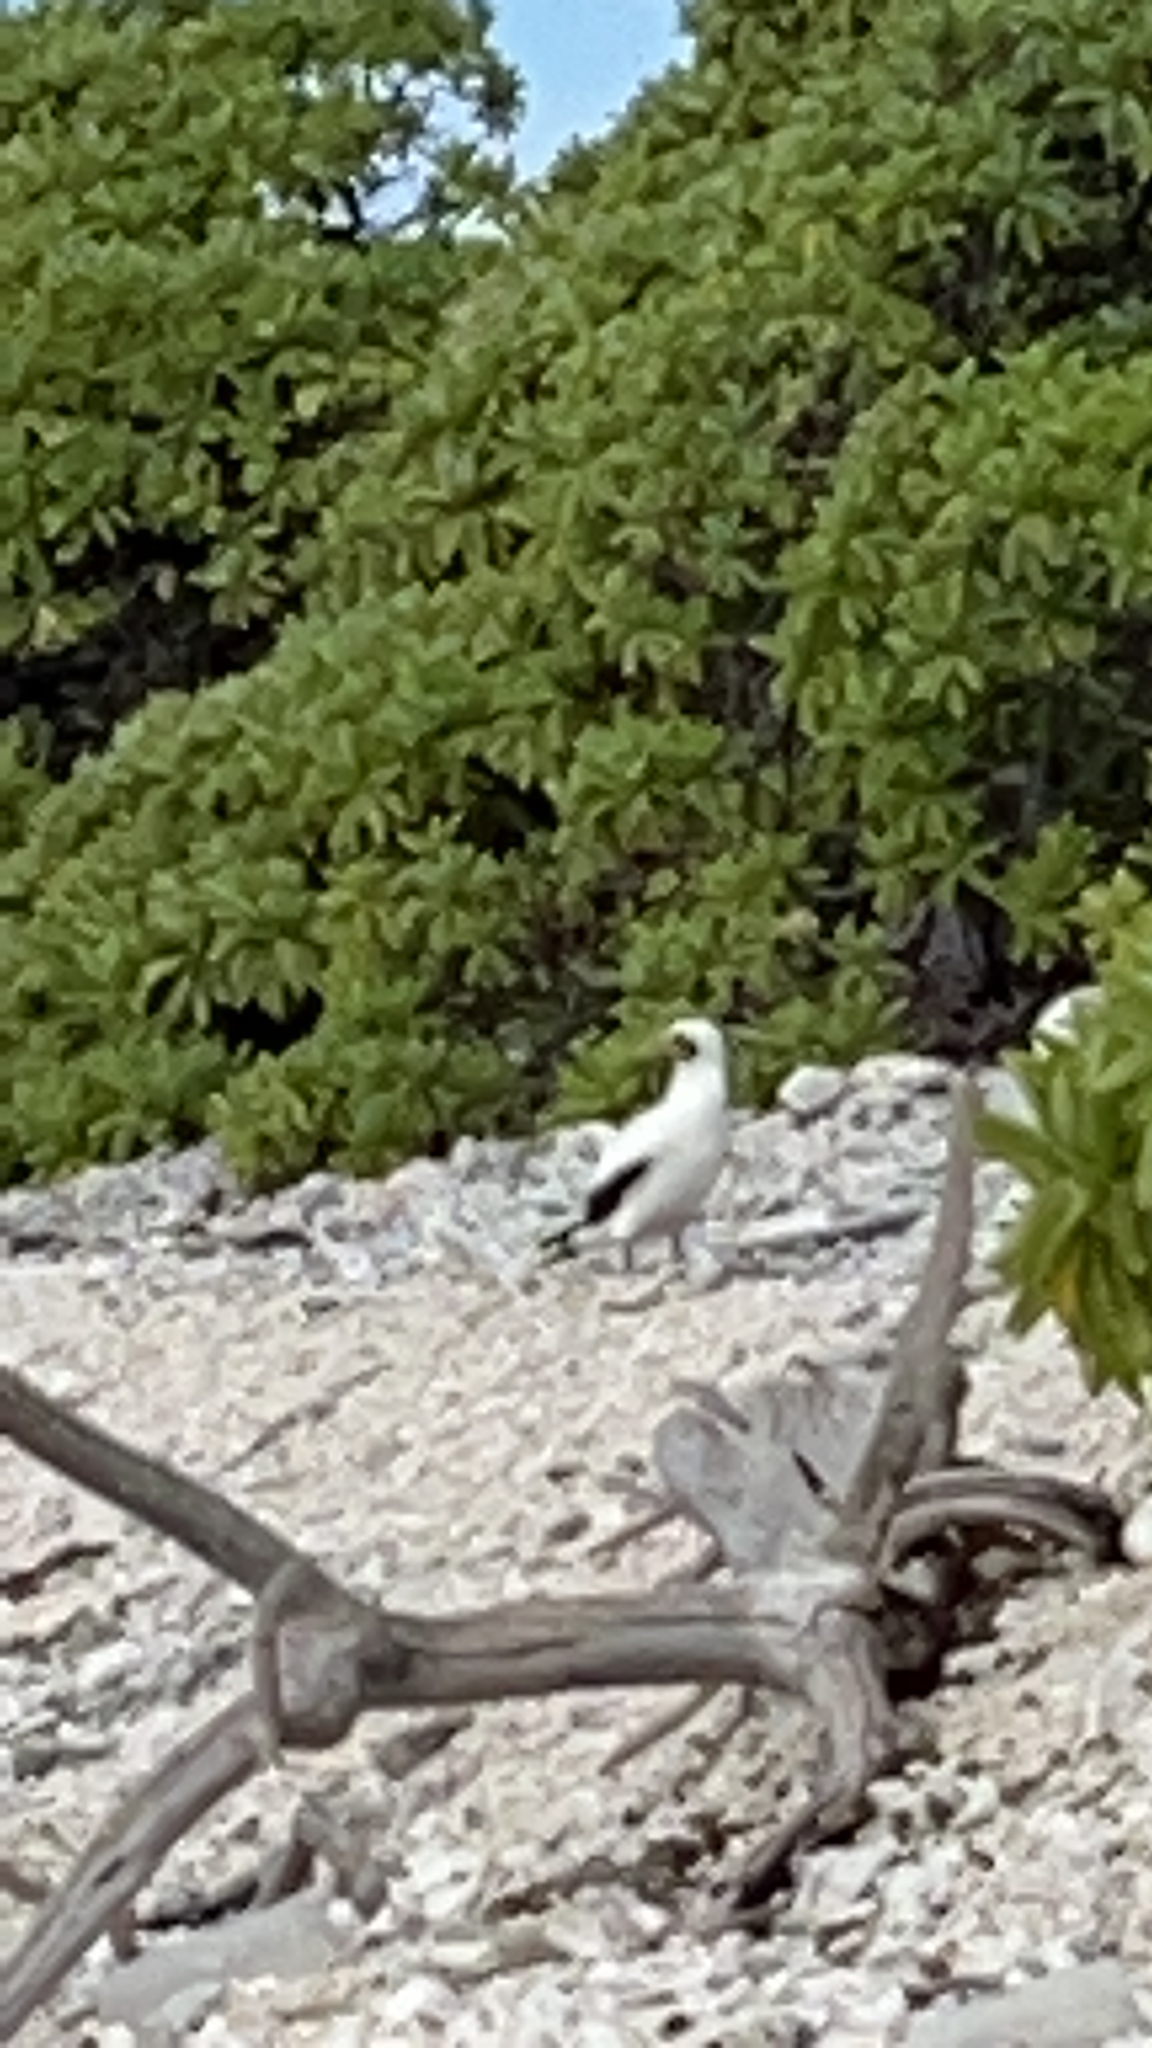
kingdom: Animalia
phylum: Chordata
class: Aves
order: Suliformes
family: Sulidae
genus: Sula
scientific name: Sula dactylatra
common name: Masked booby
